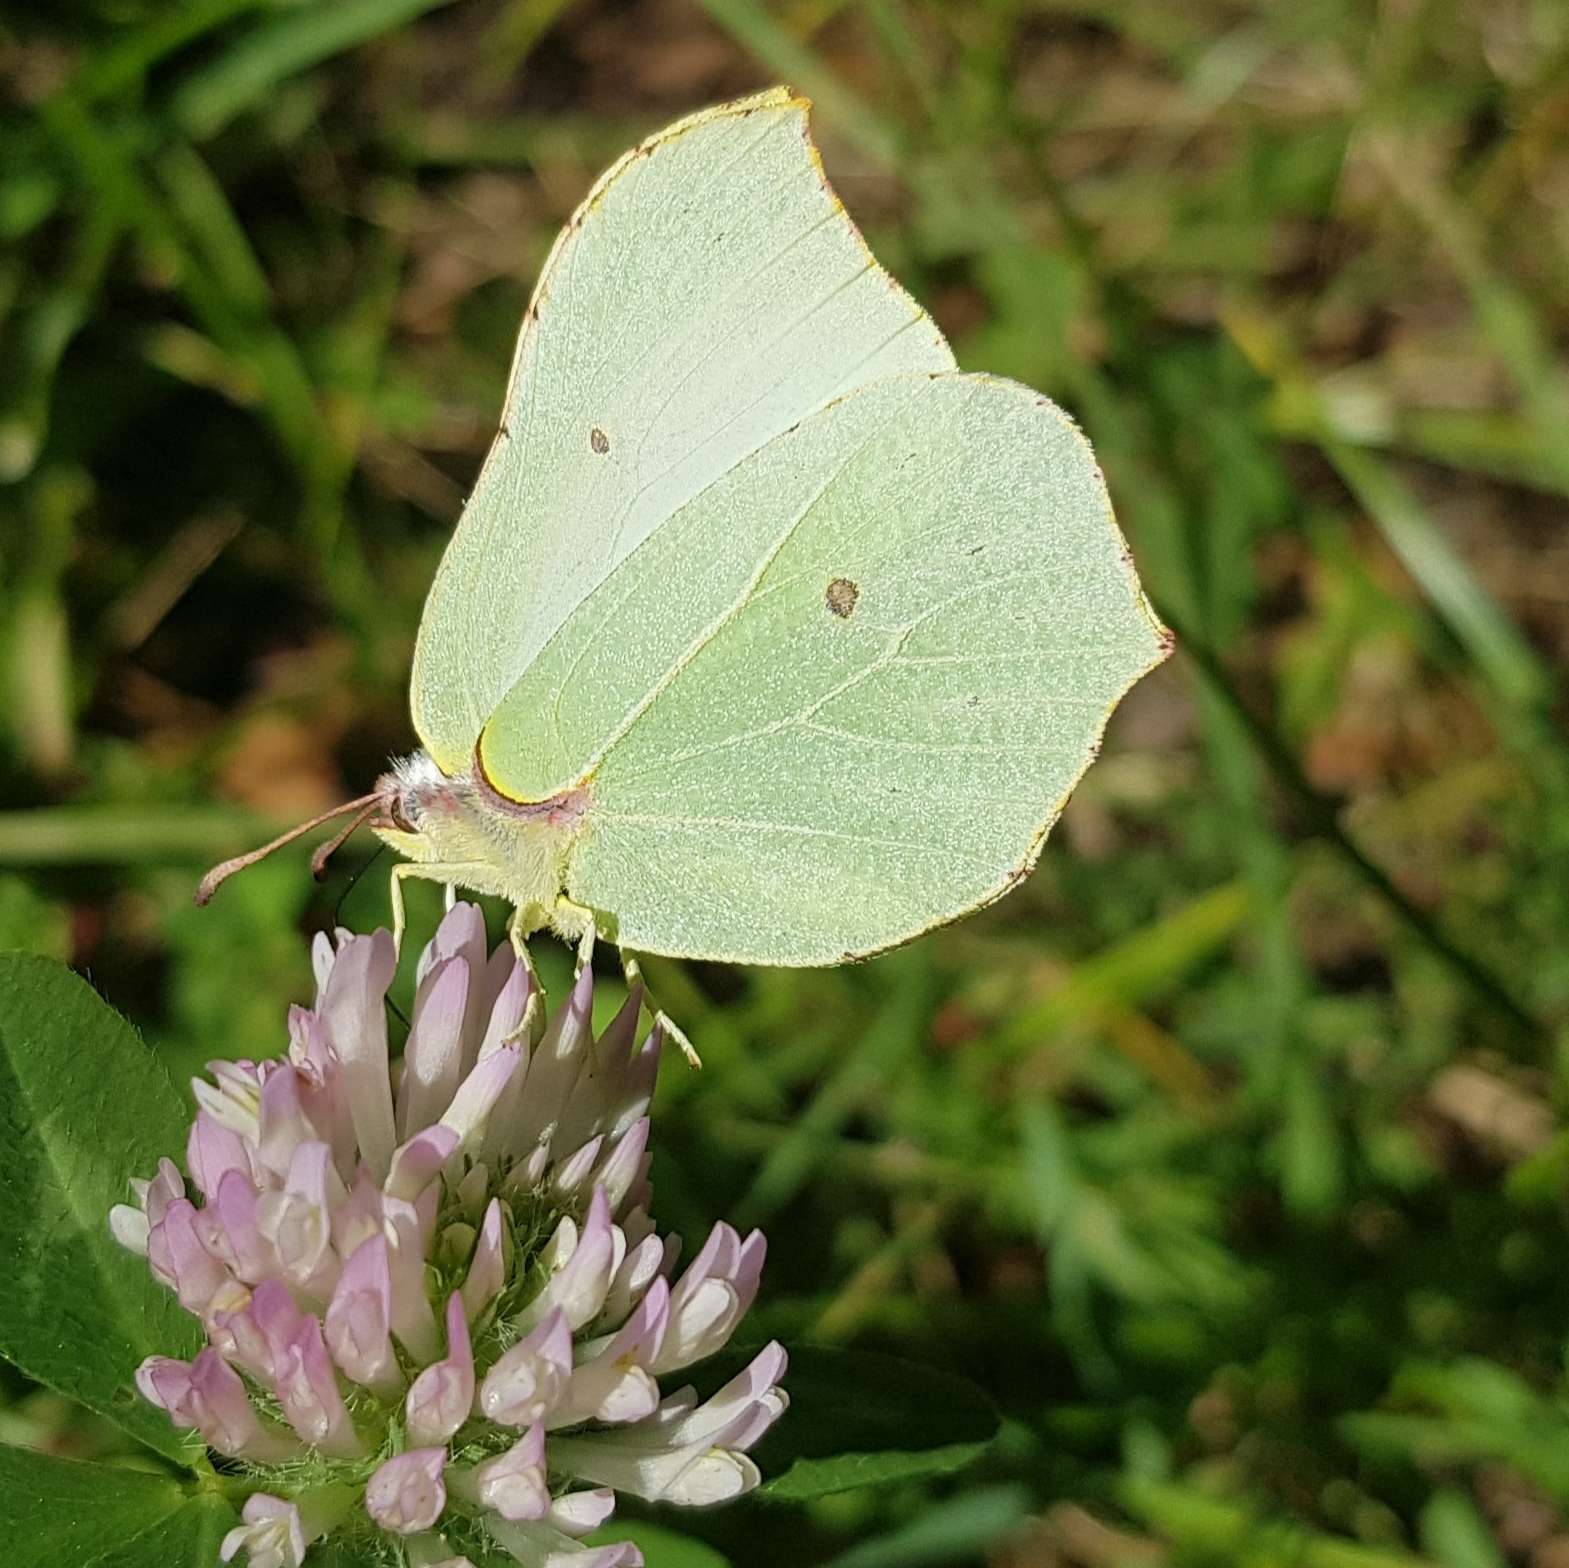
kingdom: Animalia
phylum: Arthropoda
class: Insecta
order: Lepidoptera
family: Pieridae
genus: Gonepteryx
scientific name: Gonepteryx rhamni
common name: Brimstone
